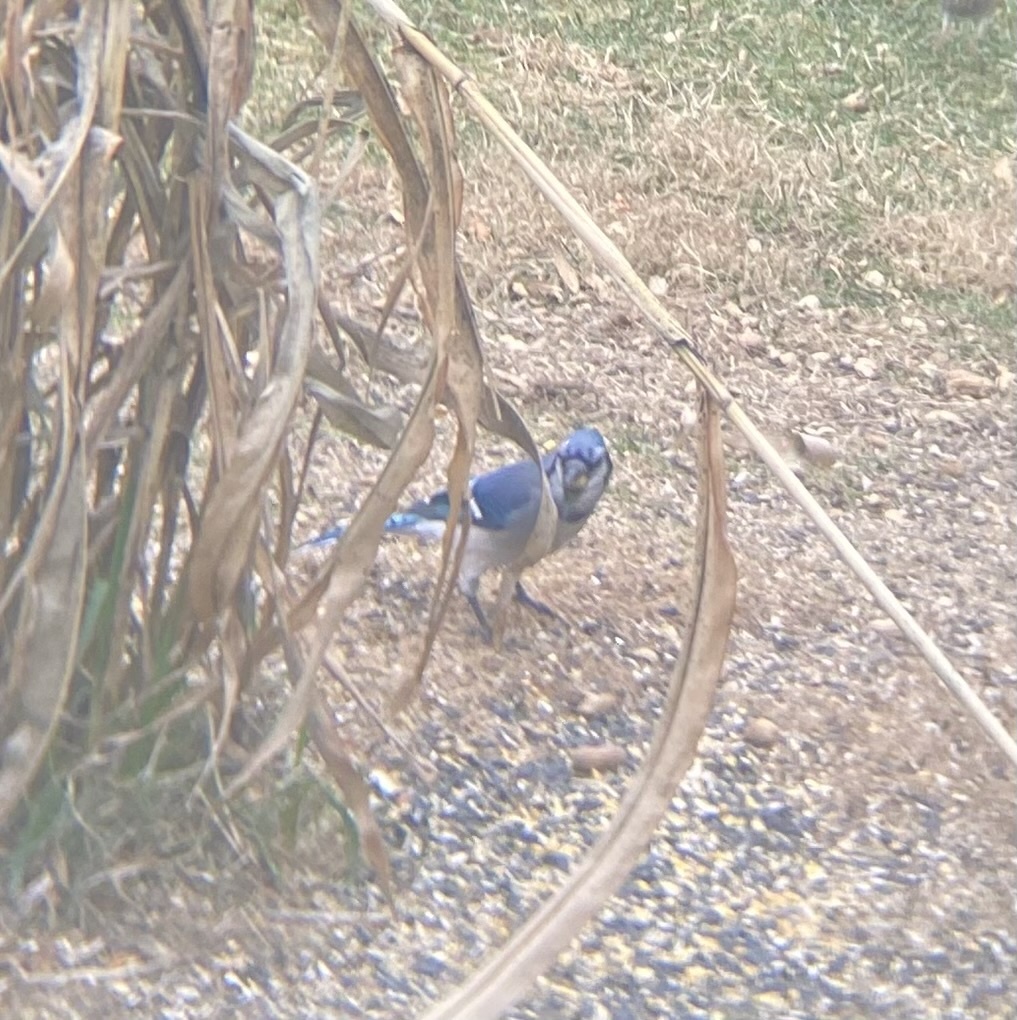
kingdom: Animalia
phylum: Chordata
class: Aves
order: Passeriformes
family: Corvidae
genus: Cyanocitta
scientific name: Cyanocitta cristata
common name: Blue jay
